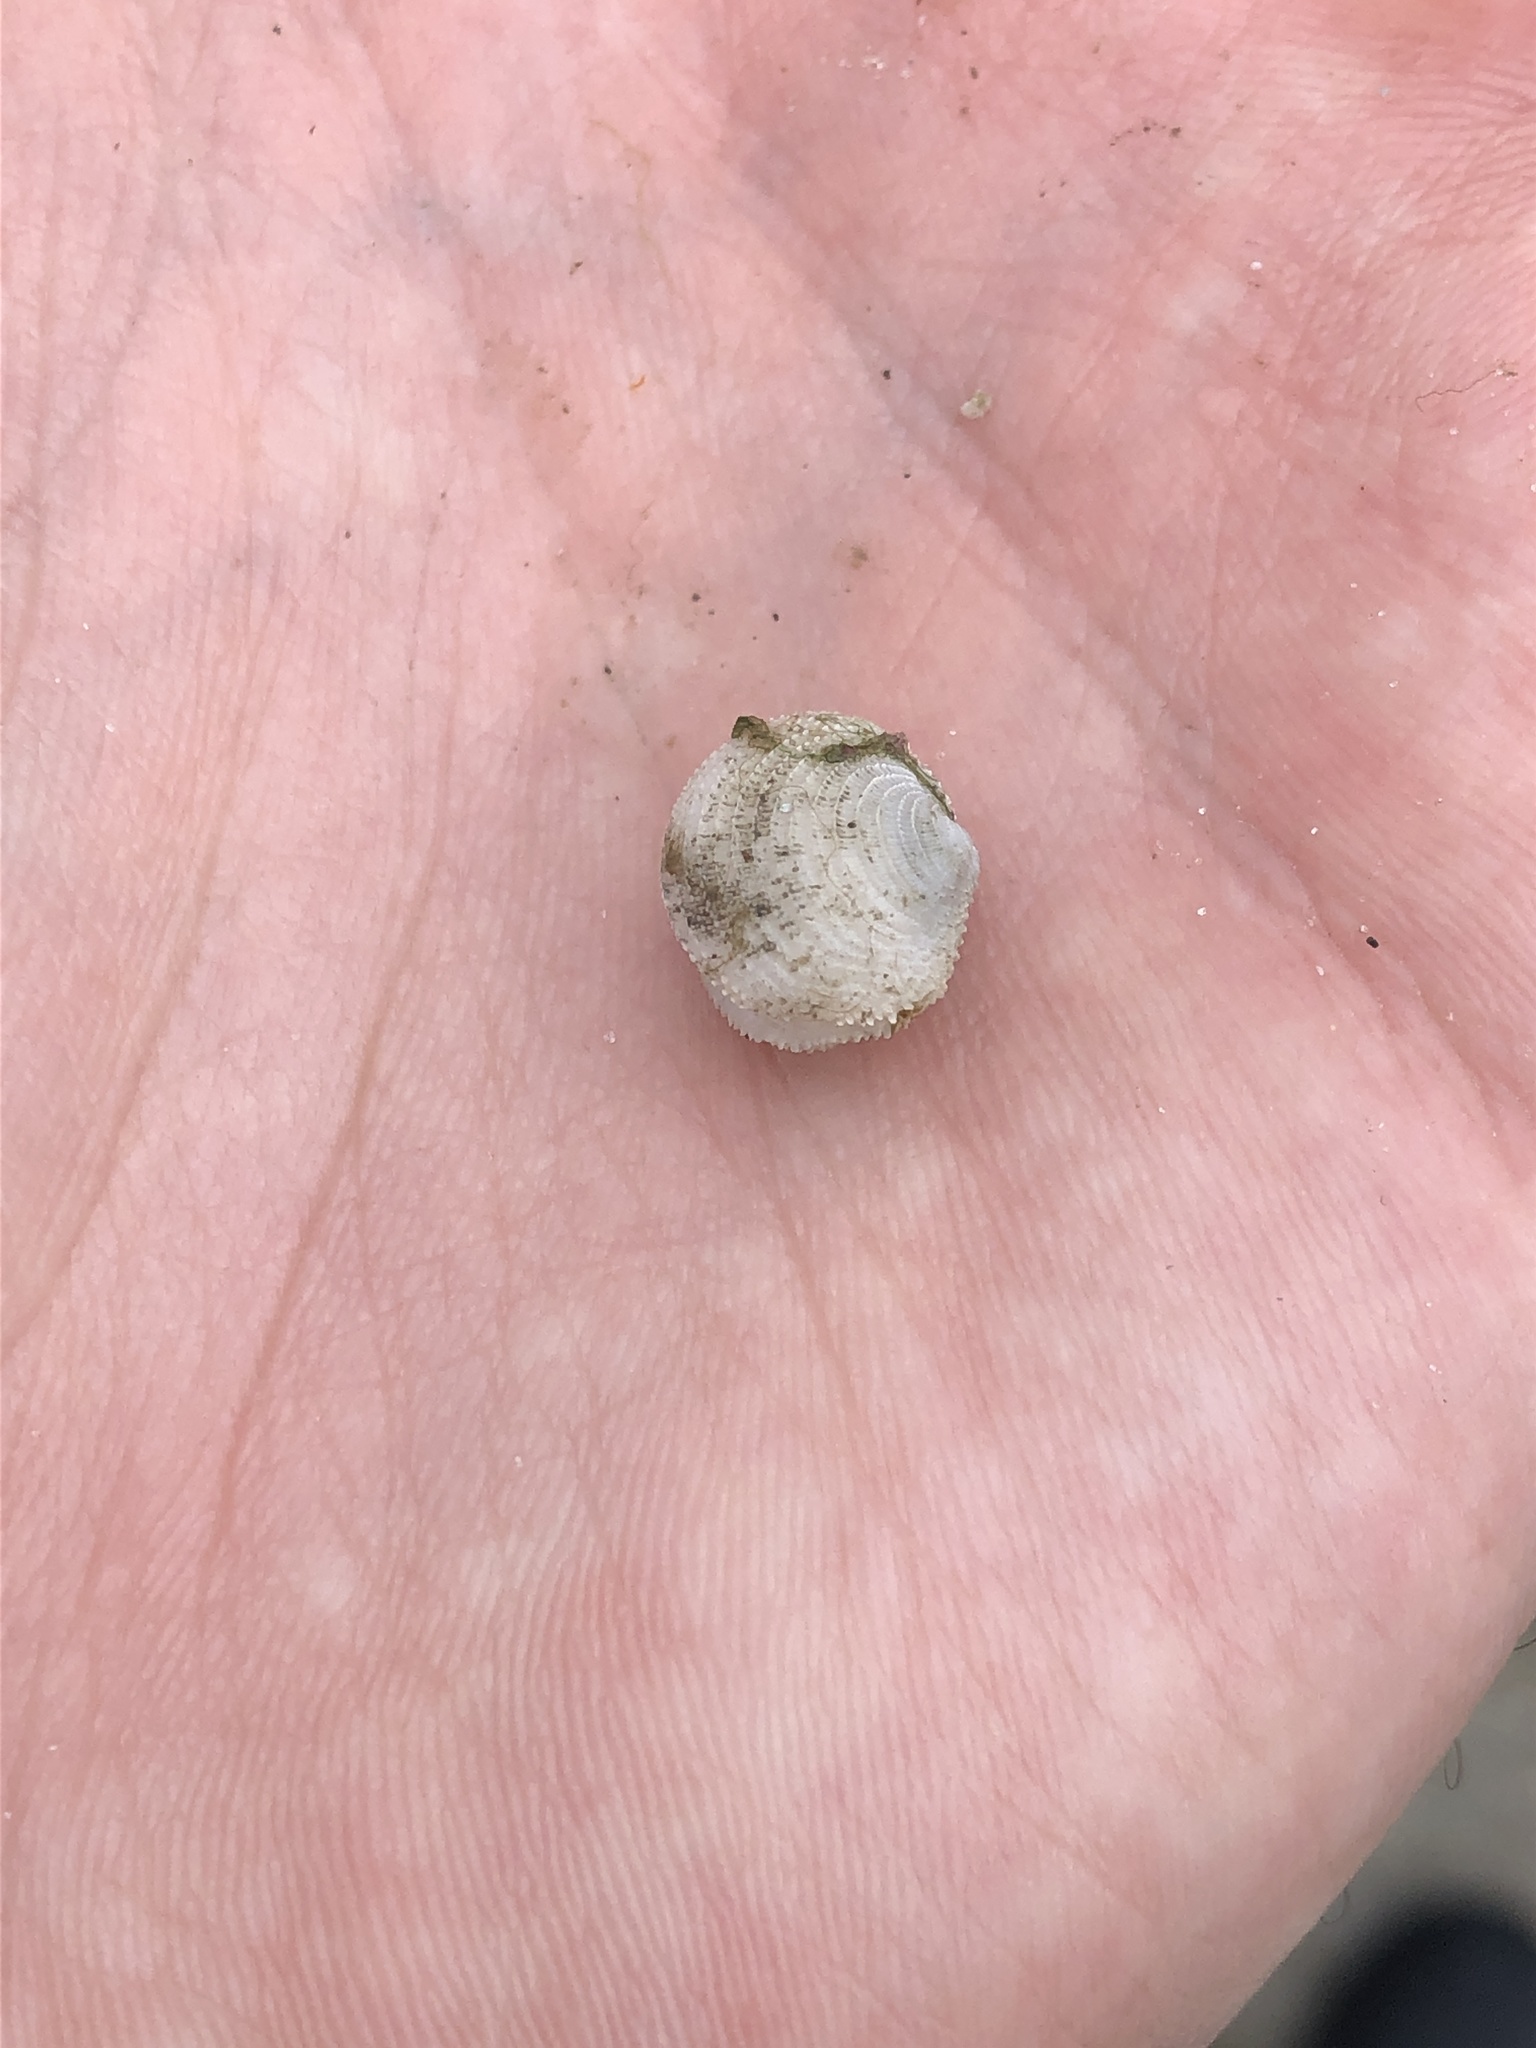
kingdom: Animalia
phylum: Mollusca
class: Bivalvia
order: Lucinida
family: Lucinidae
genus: Lucinisca
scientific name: Lucinisca nassula
